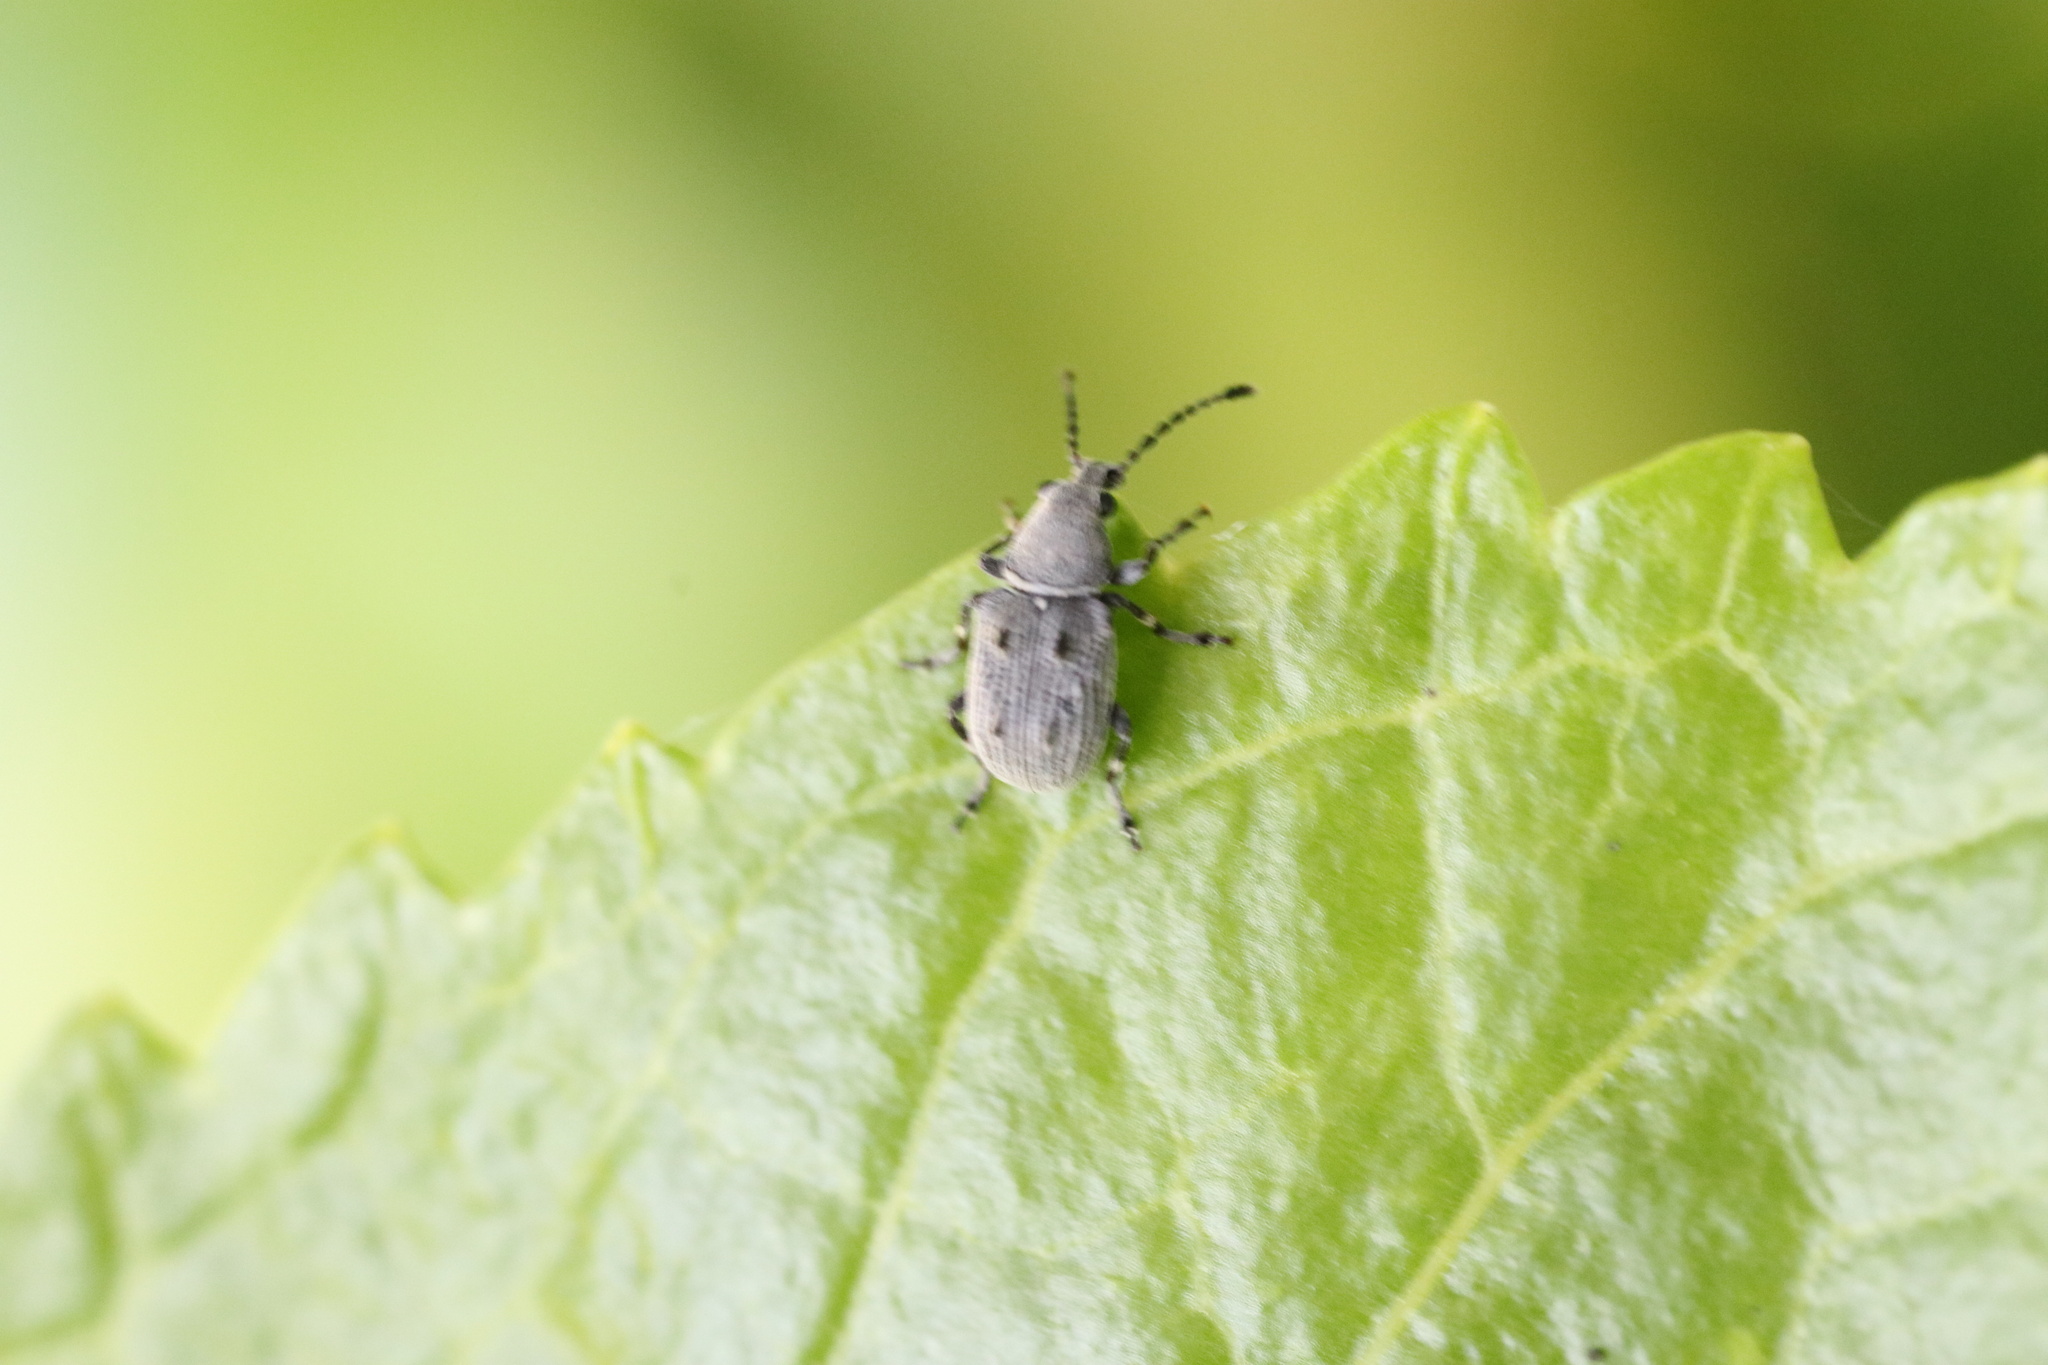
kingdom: Animalia
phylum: Arthropoda
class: Insecta
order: Coleoptera
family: Anthribidae
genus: Systellorhynchus
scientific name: Systellorhynchus
